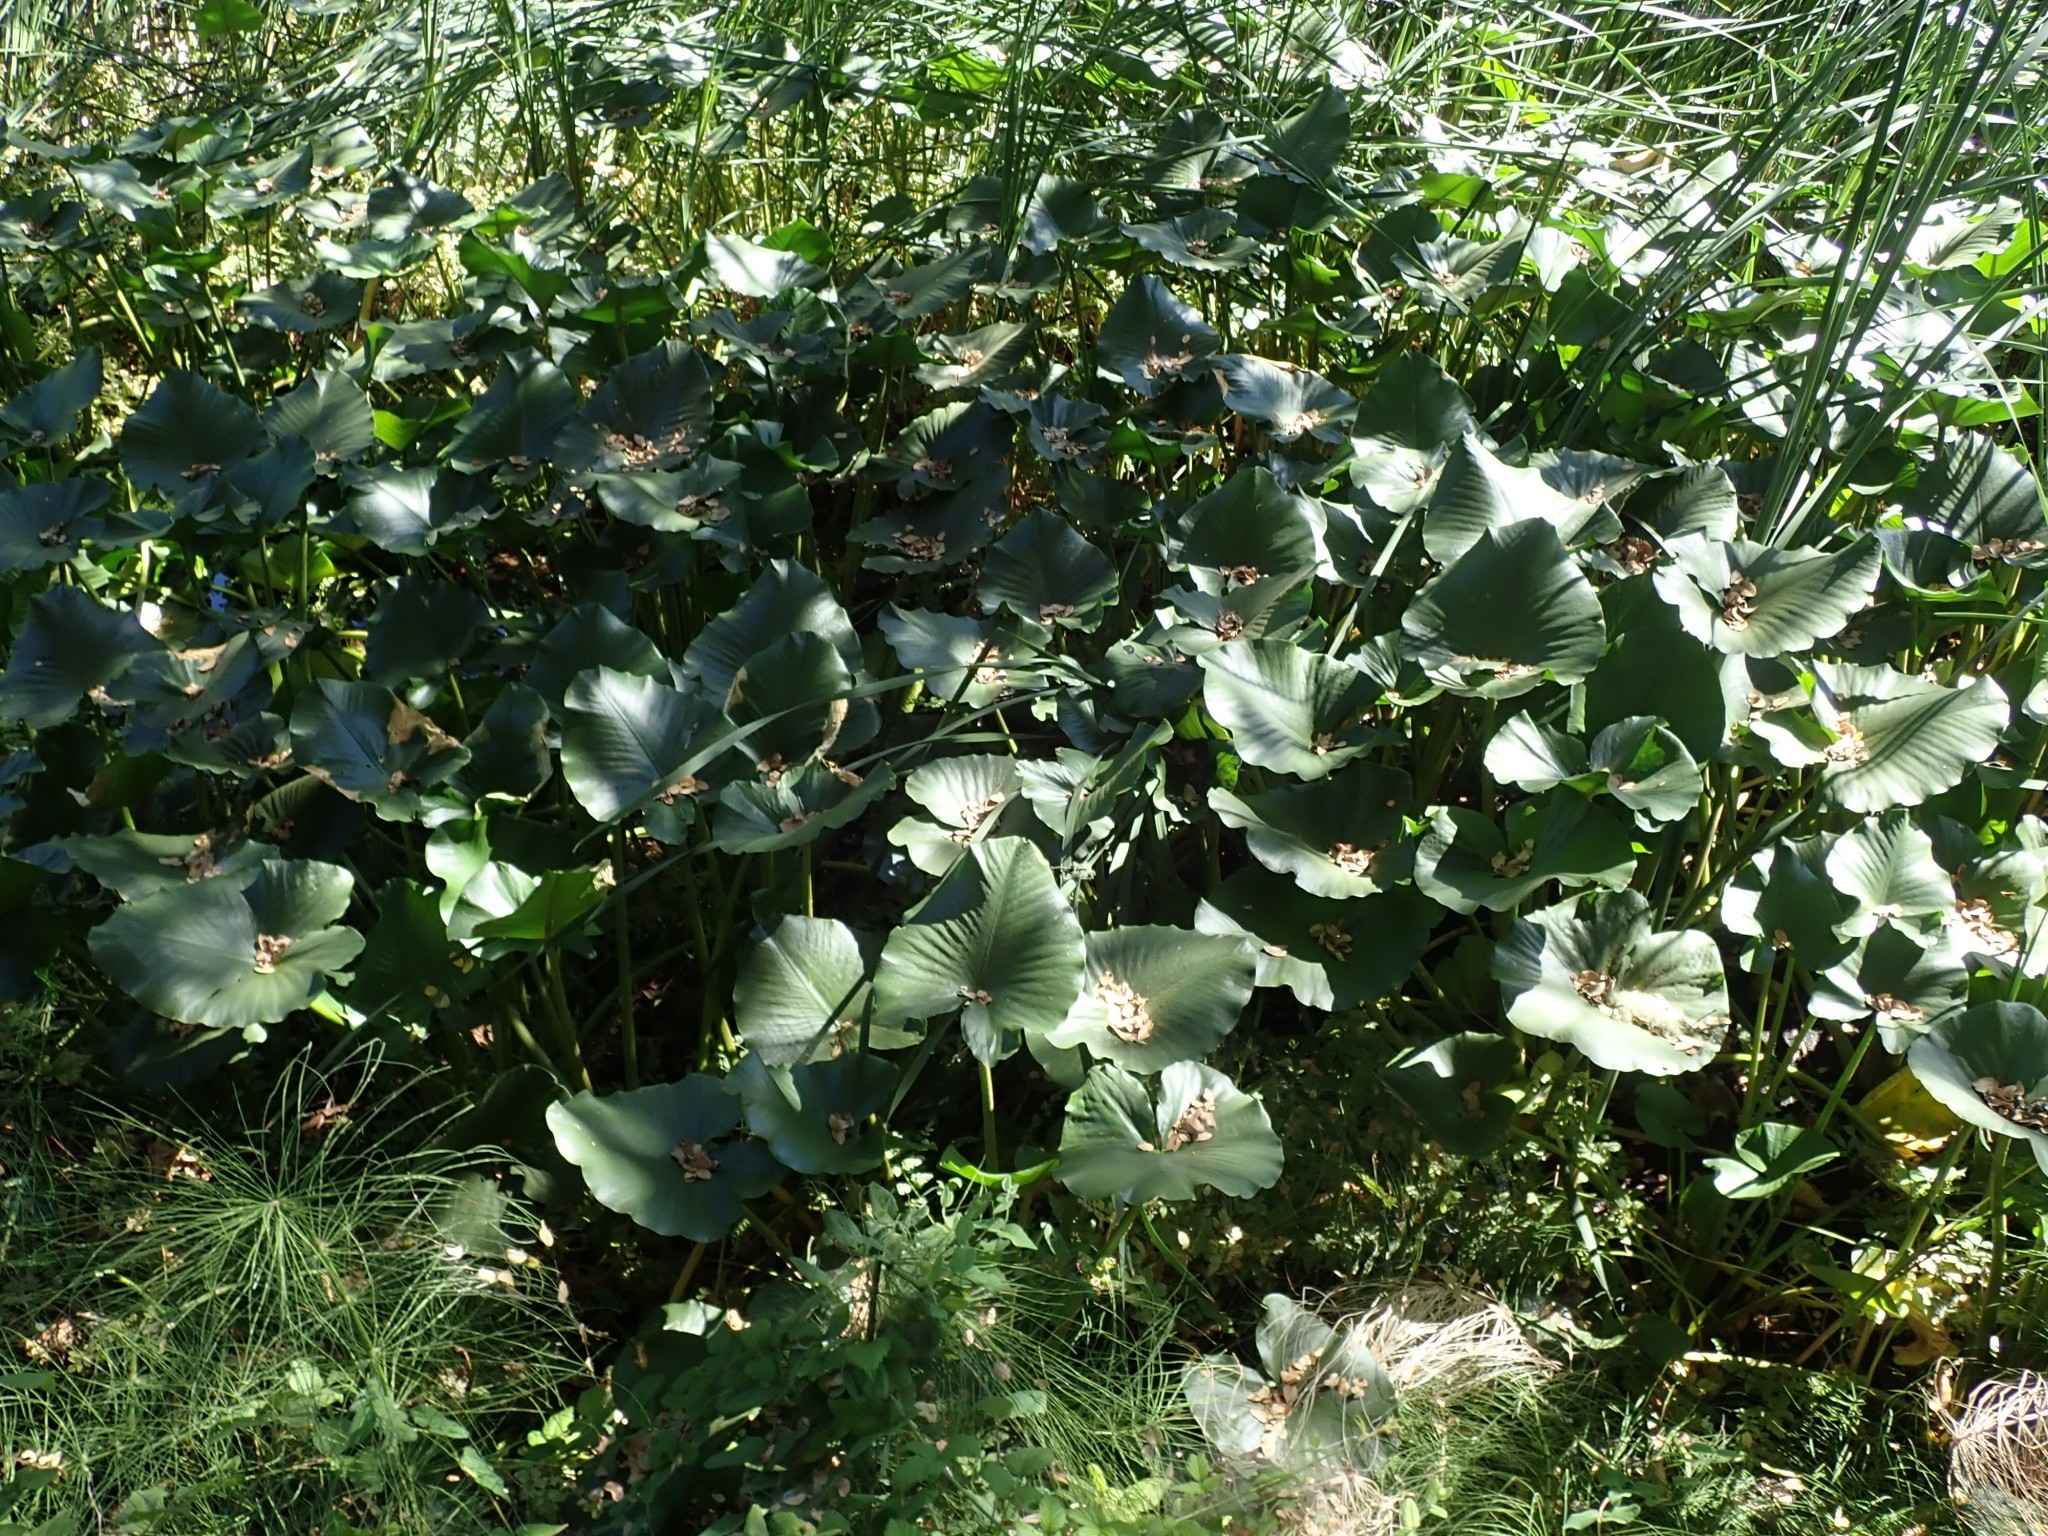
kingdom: Plantae
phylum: Tracheophyta
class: Magnoliopsida
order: Nymphaeales
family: Nymphaeaceae
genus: Nuphar
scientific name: Nuphar polysepala
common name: Rocky mountain cow-lily
